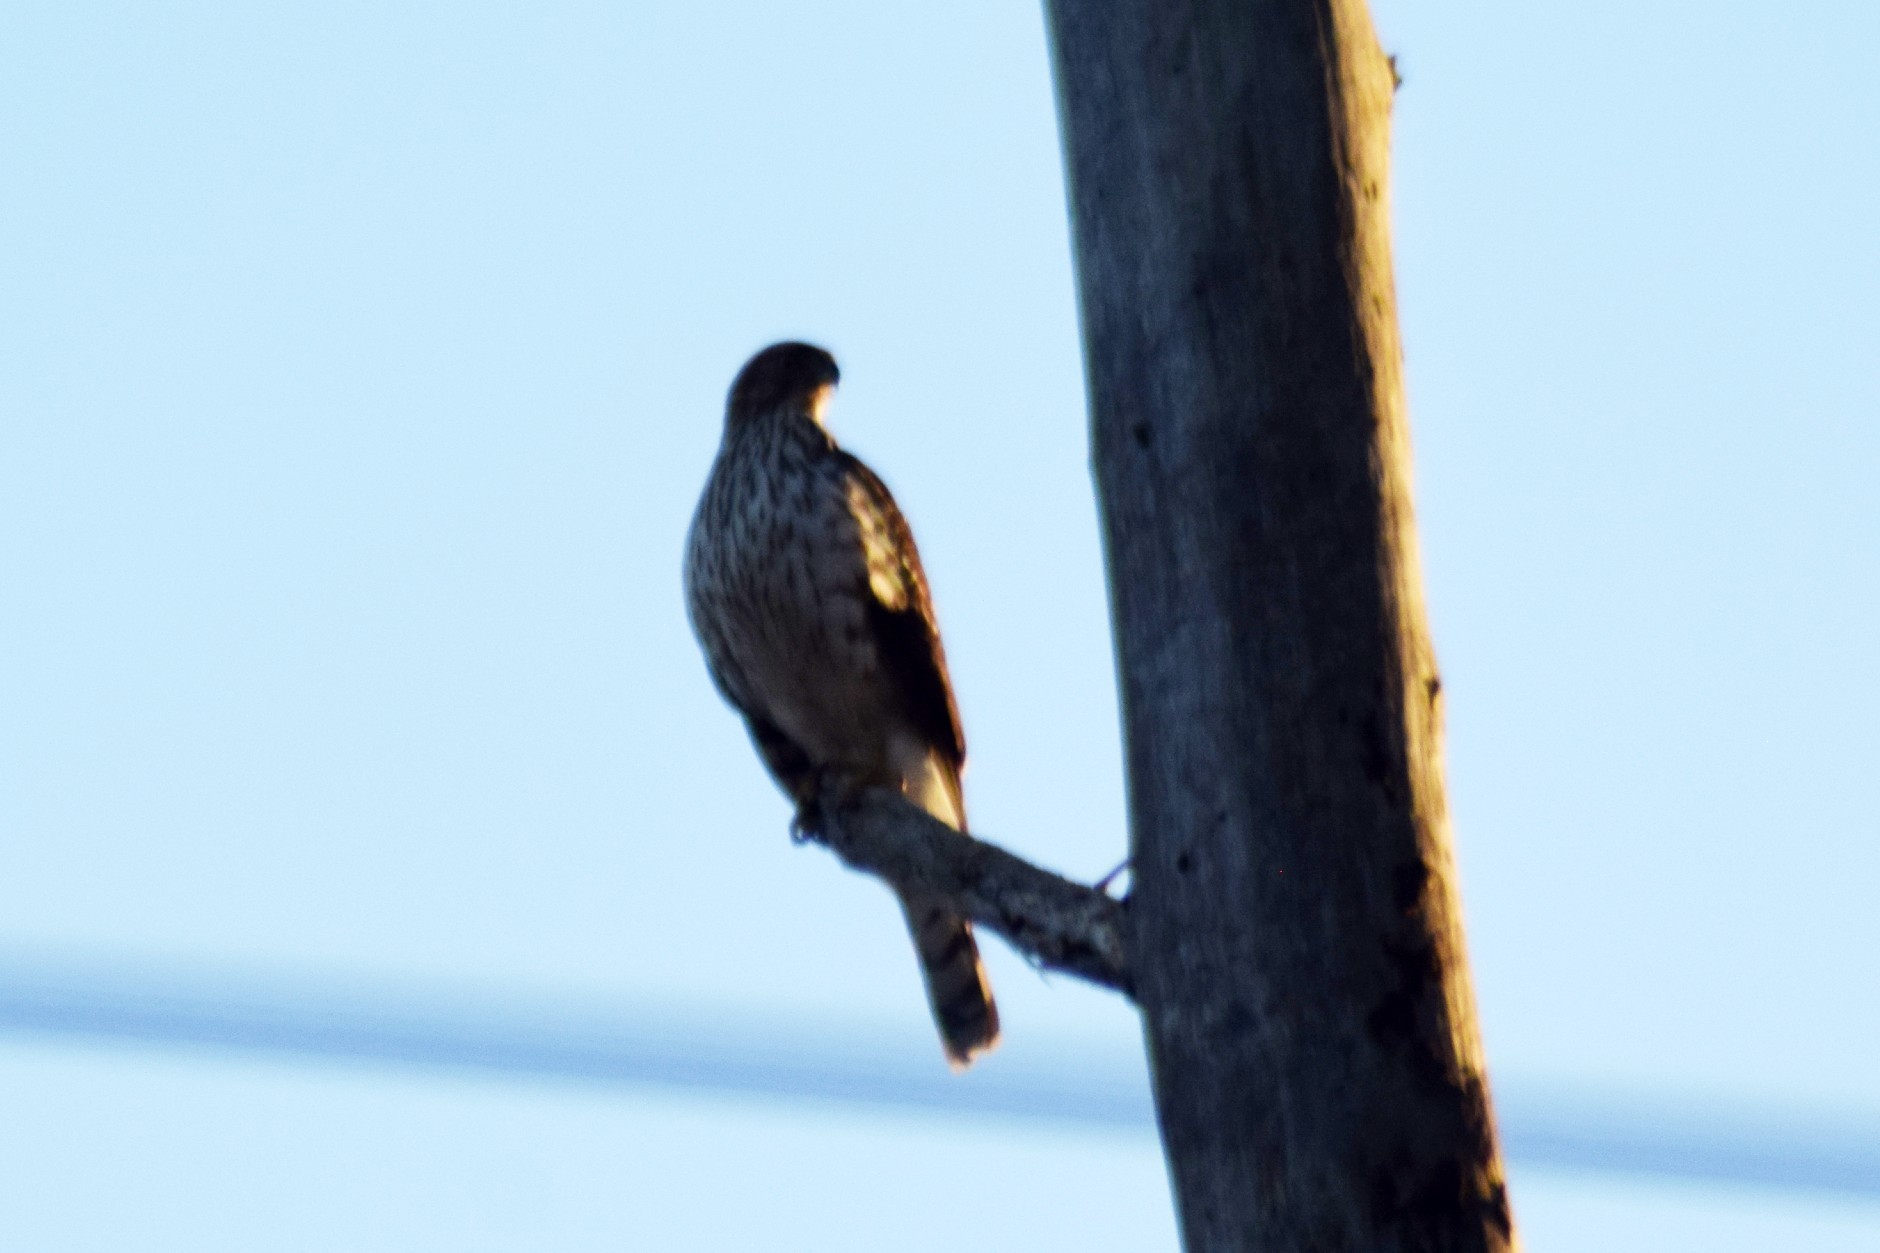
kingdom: Animalia
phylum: Chordata
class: Aves
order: Accipitriformes
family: Accipitridae
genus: Buteo
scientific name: Buteo jamaicensis
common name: Red-tailed hawk
